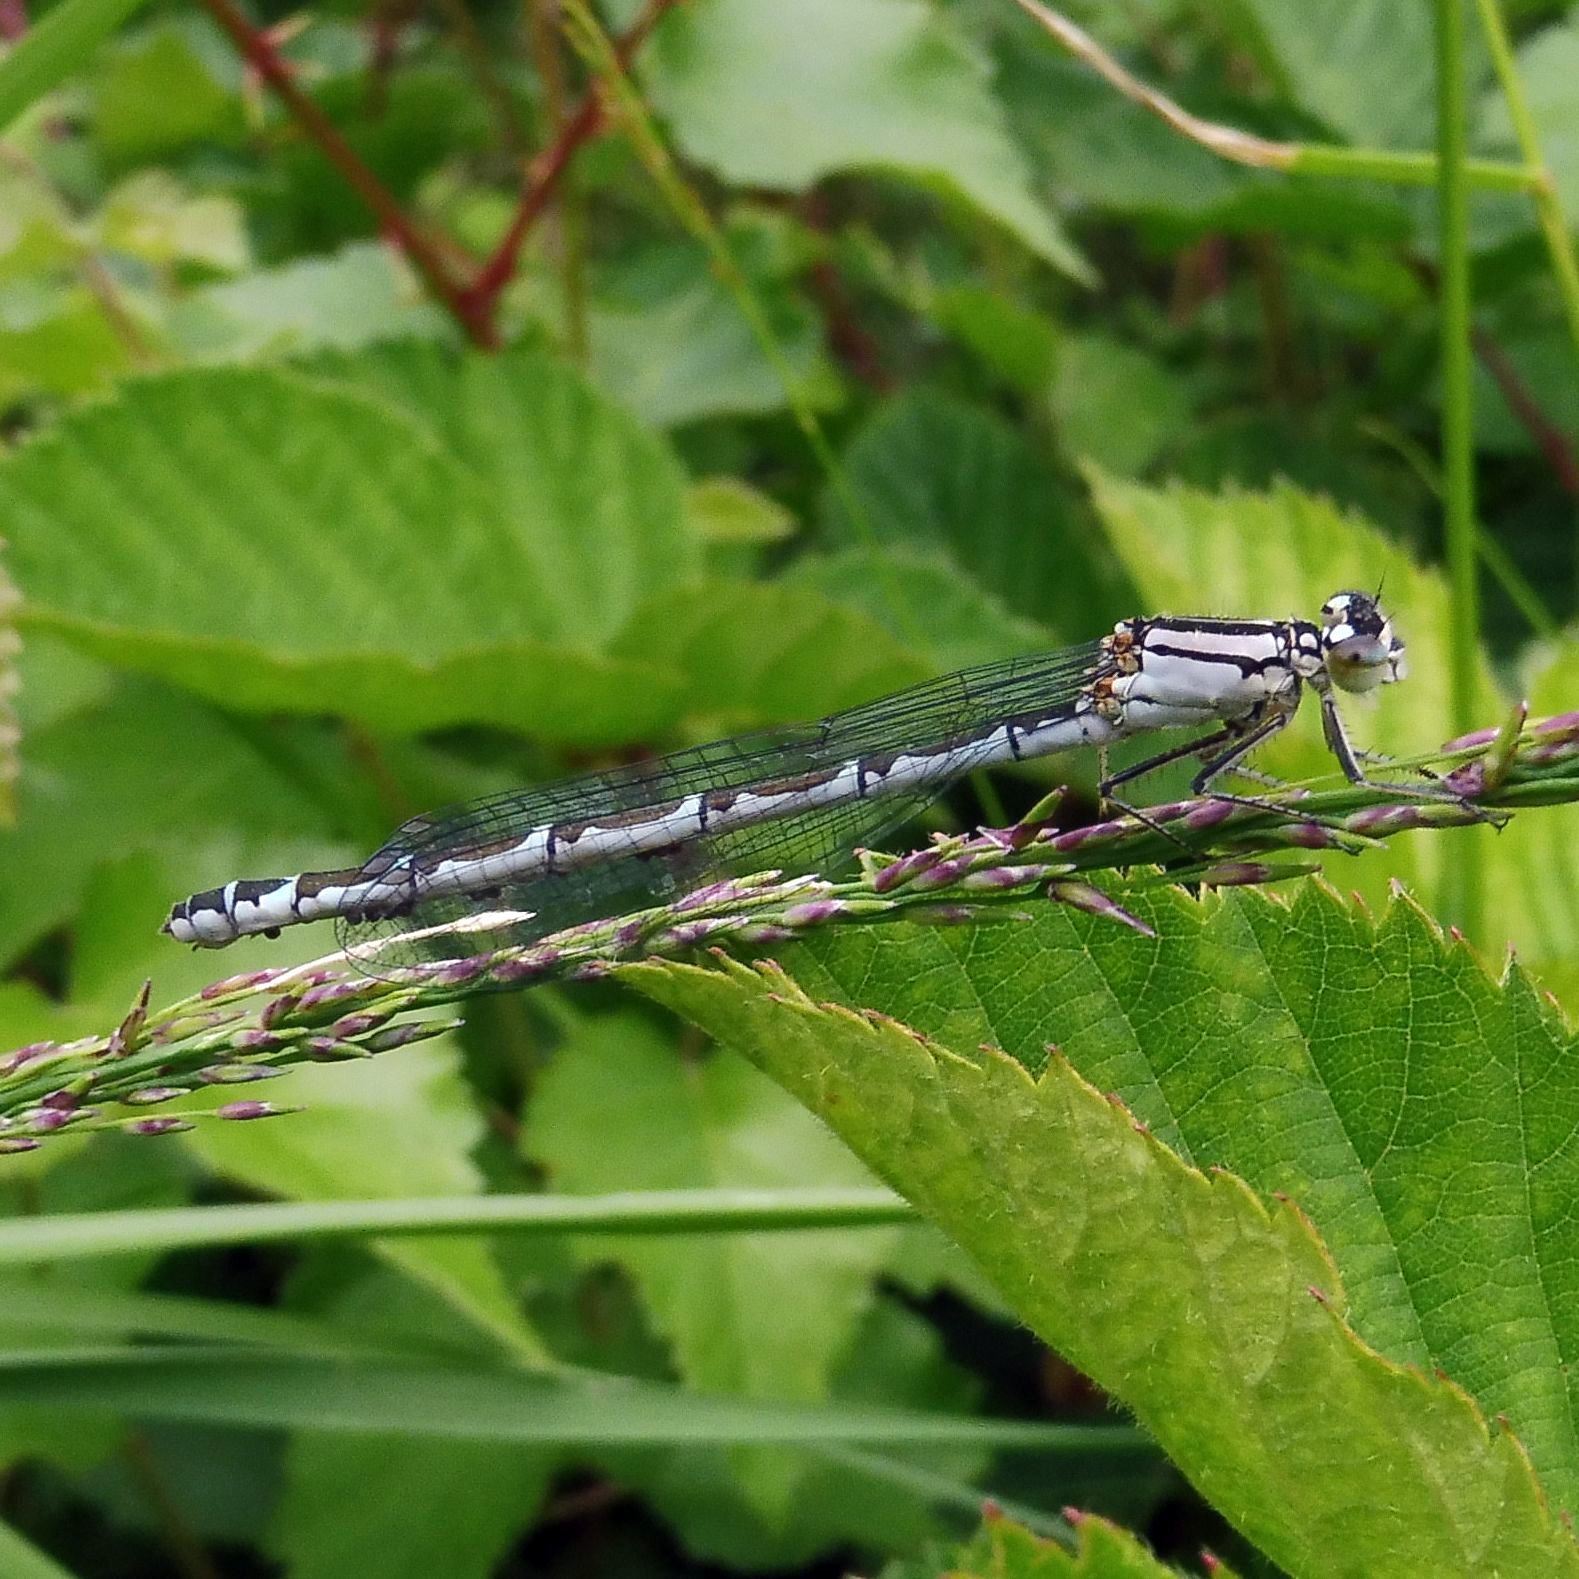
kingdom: Animalia
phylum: Arthropoda
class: Insecta
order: Odonata
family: Coenagrionidae
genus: Enallagma
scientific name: Enallagma cyathigerum
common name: Common blue damselfly
